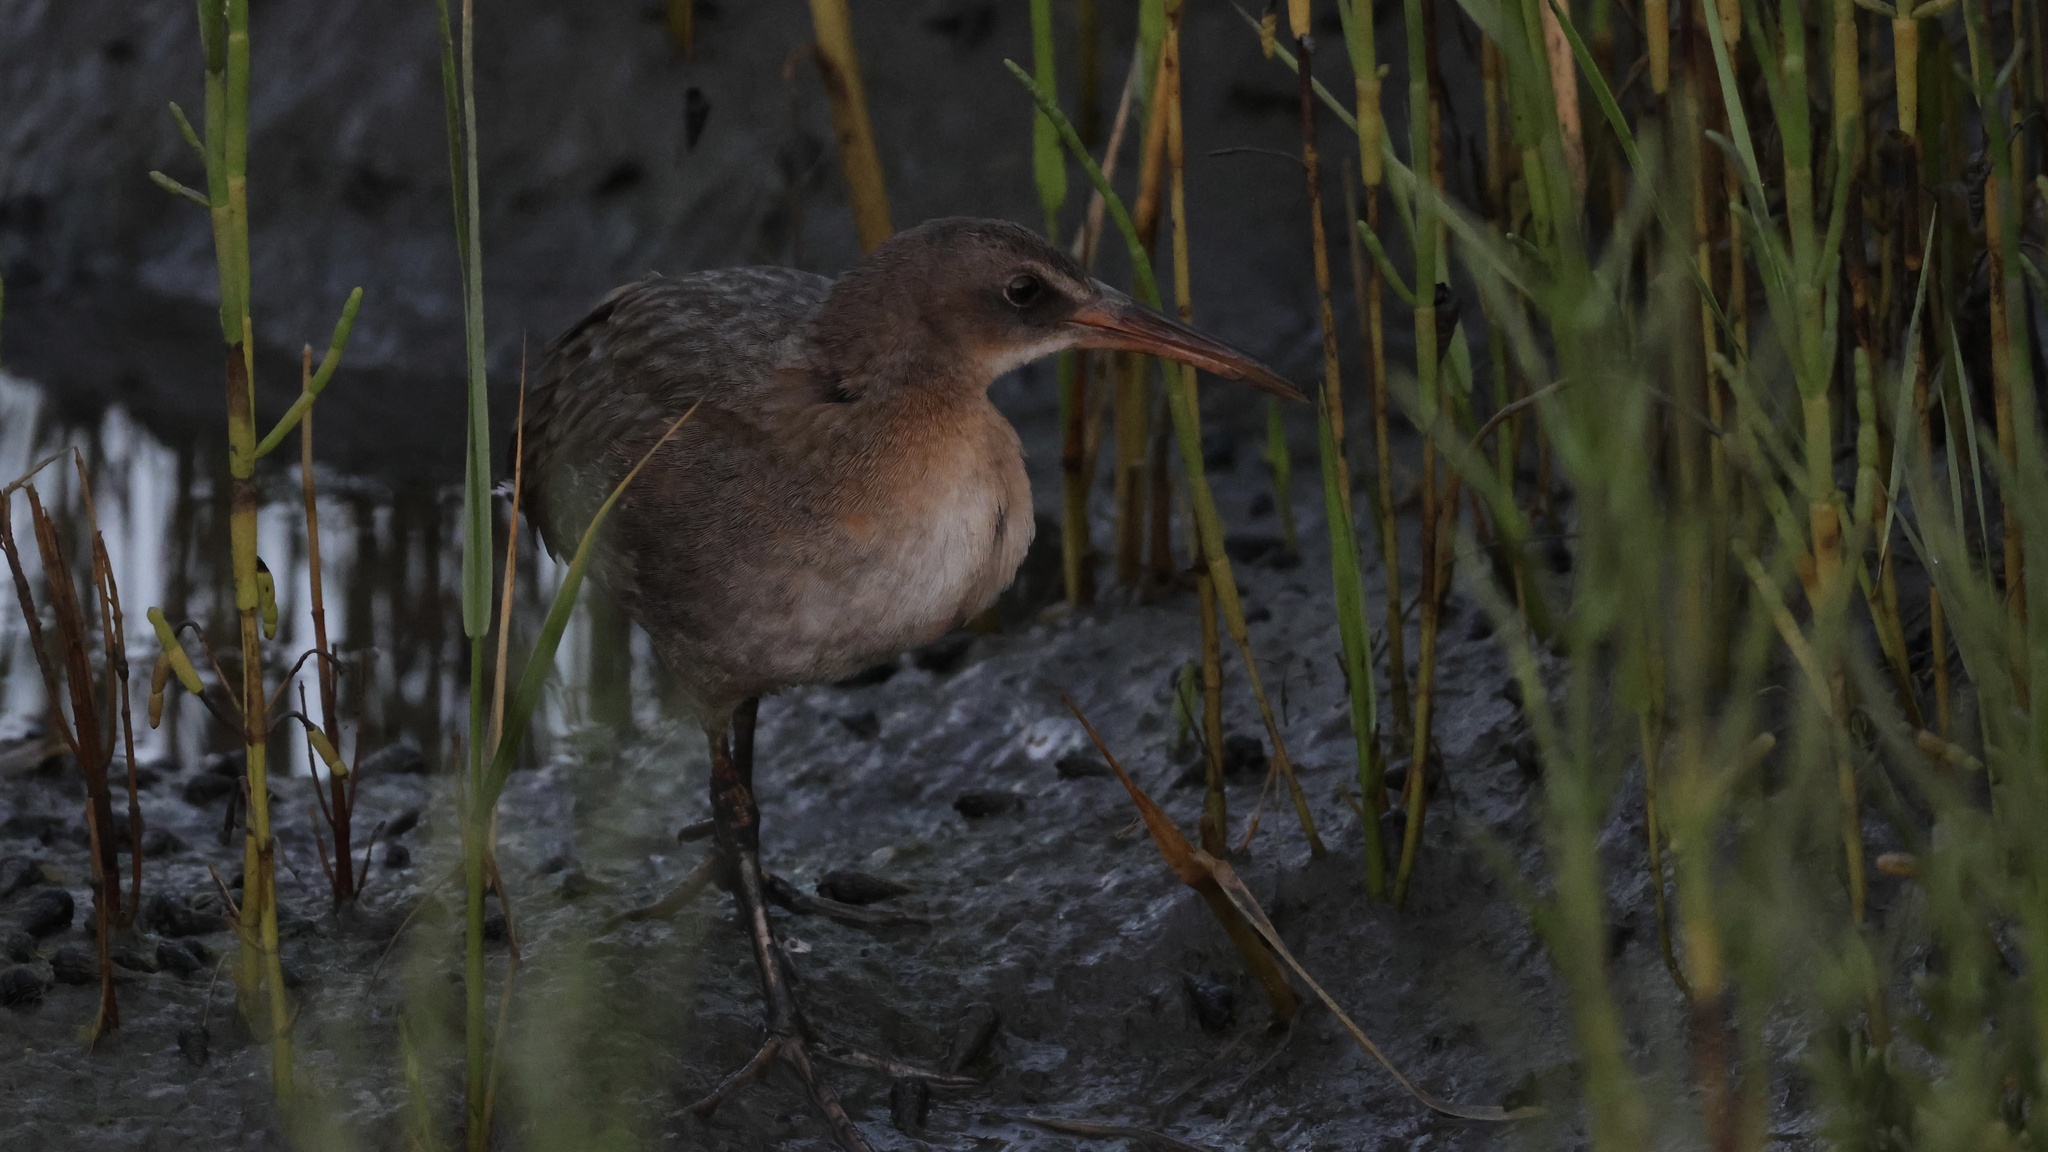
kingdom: Animalia
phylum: Chordata
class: Aves
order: Gruiformes
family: Rallidae
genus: Rallus
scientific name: Rallus obsoletus
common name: Ridgway's rail
